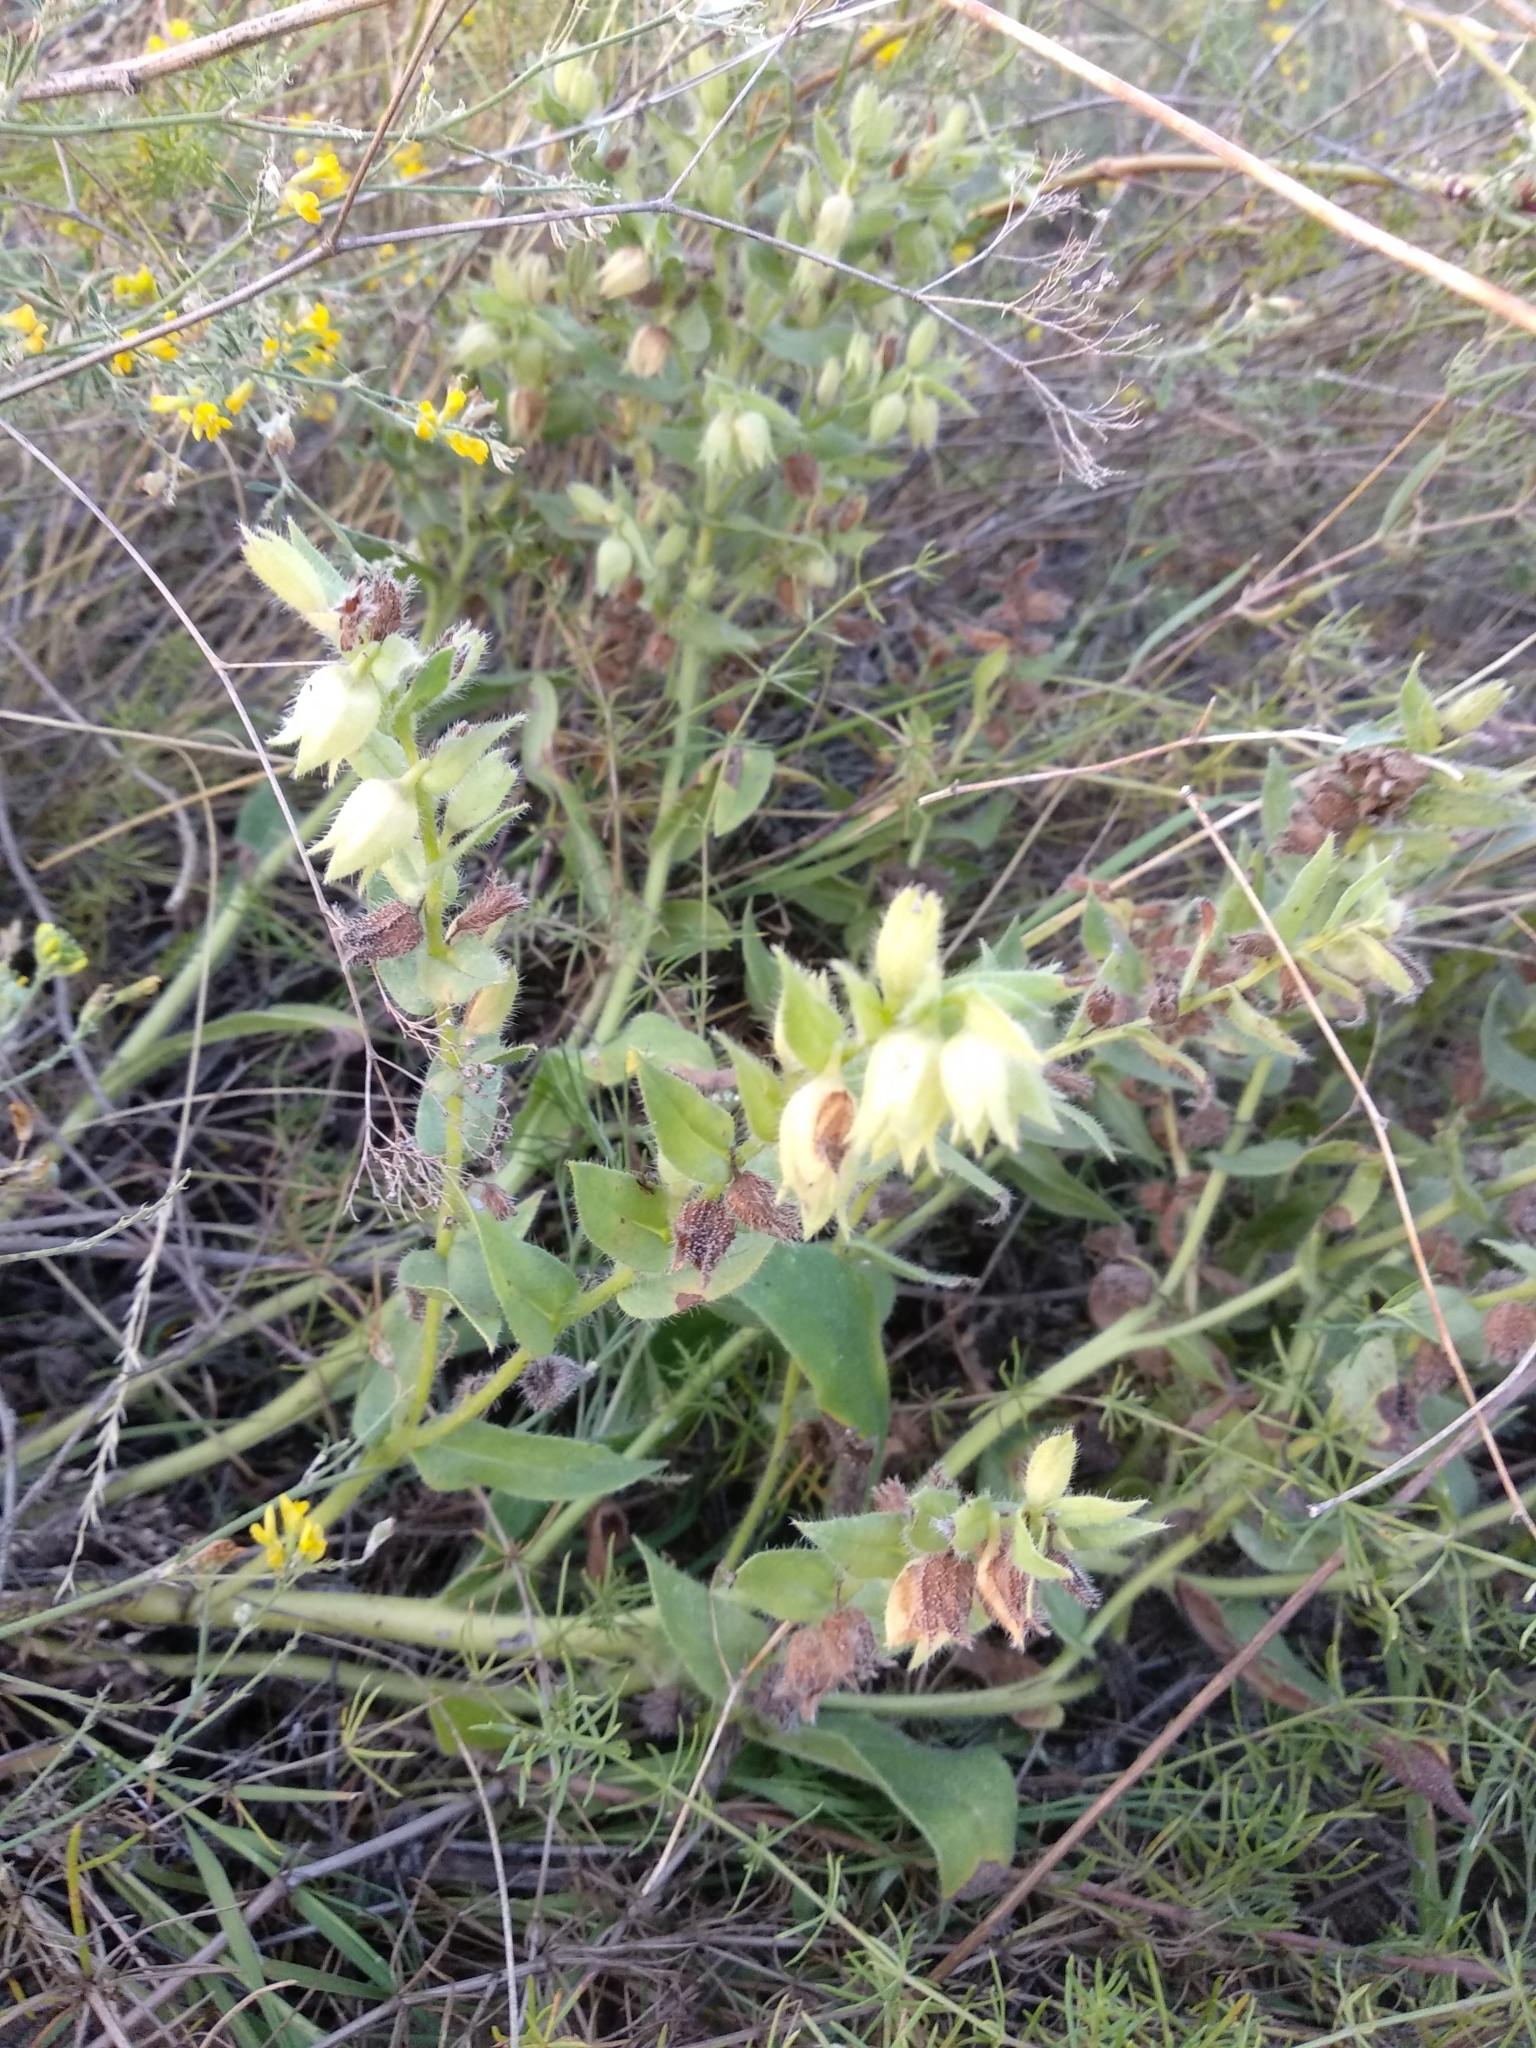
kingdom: Plantae
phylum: Tracheophyta
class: Magnoliopsida
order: Boraginales
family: Boraginaceae
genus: Nonea
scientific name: Nonea pulla
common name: Brown nonea
